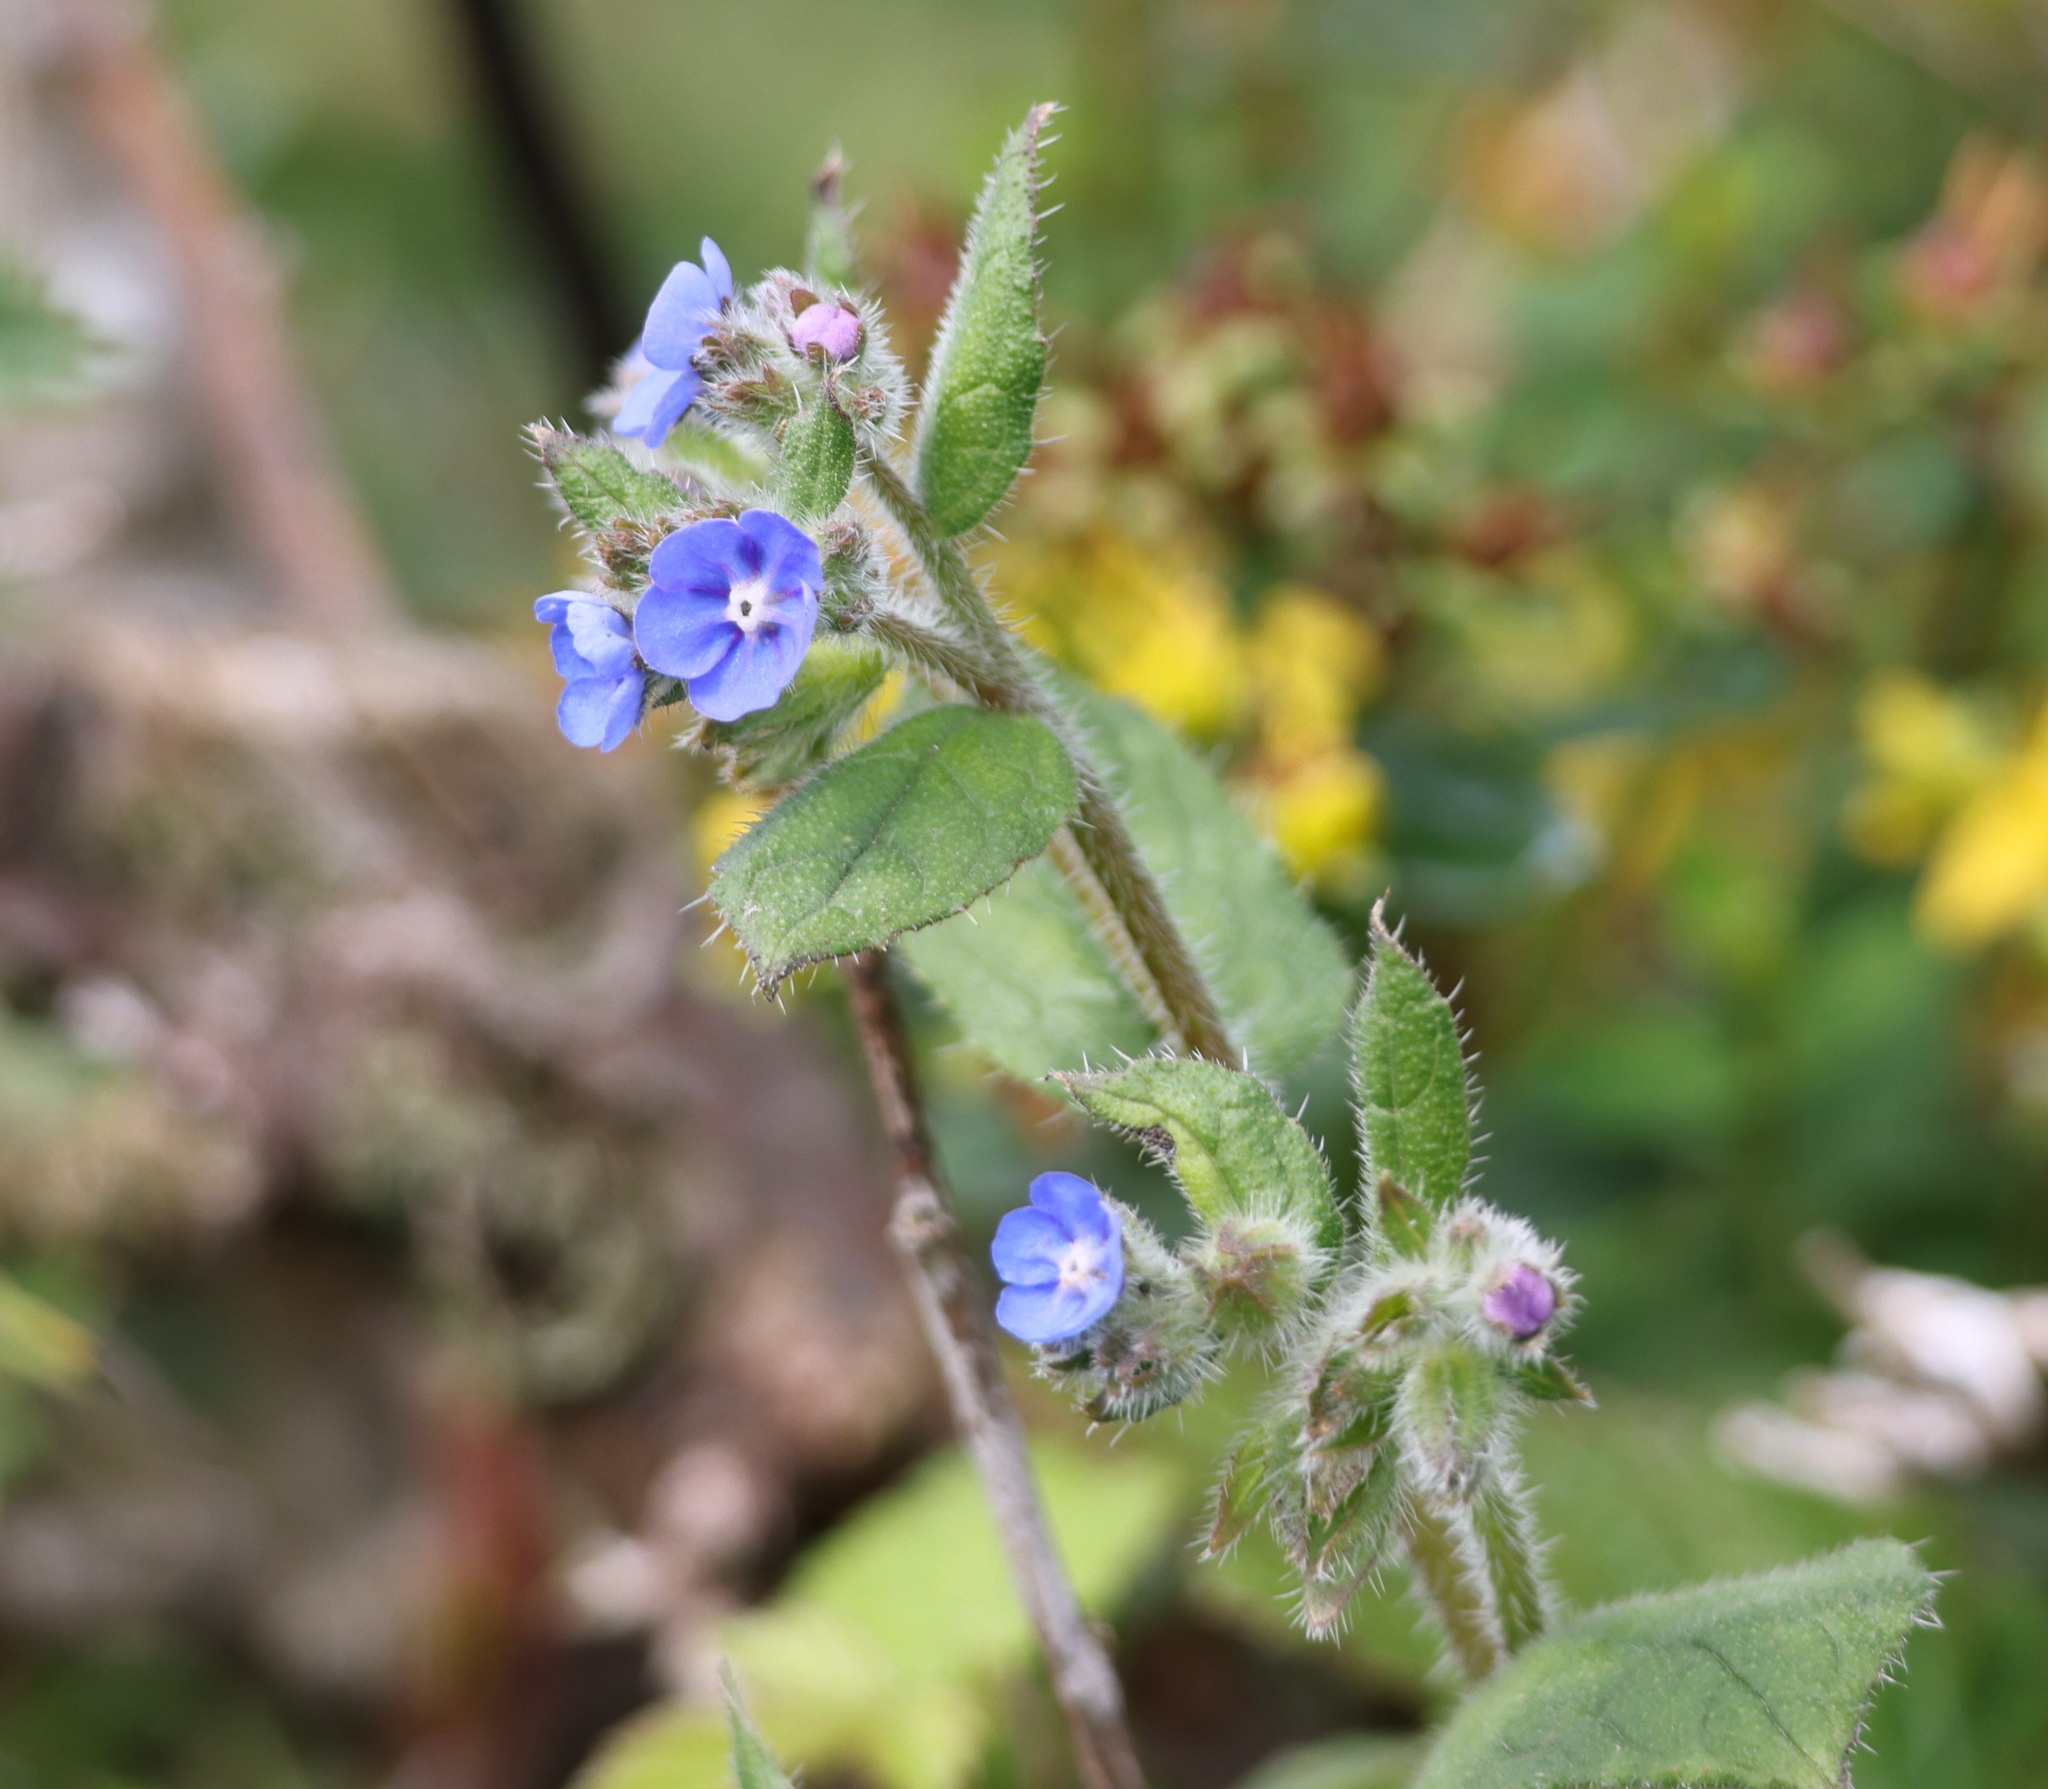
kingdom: Plantae
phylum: Tracheophyta
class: Magnoliopsida
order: Boraginales
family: Boraginaceae
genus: Pentaglottis
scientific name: Pentaglottis sempervirens
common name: Green alkanet
